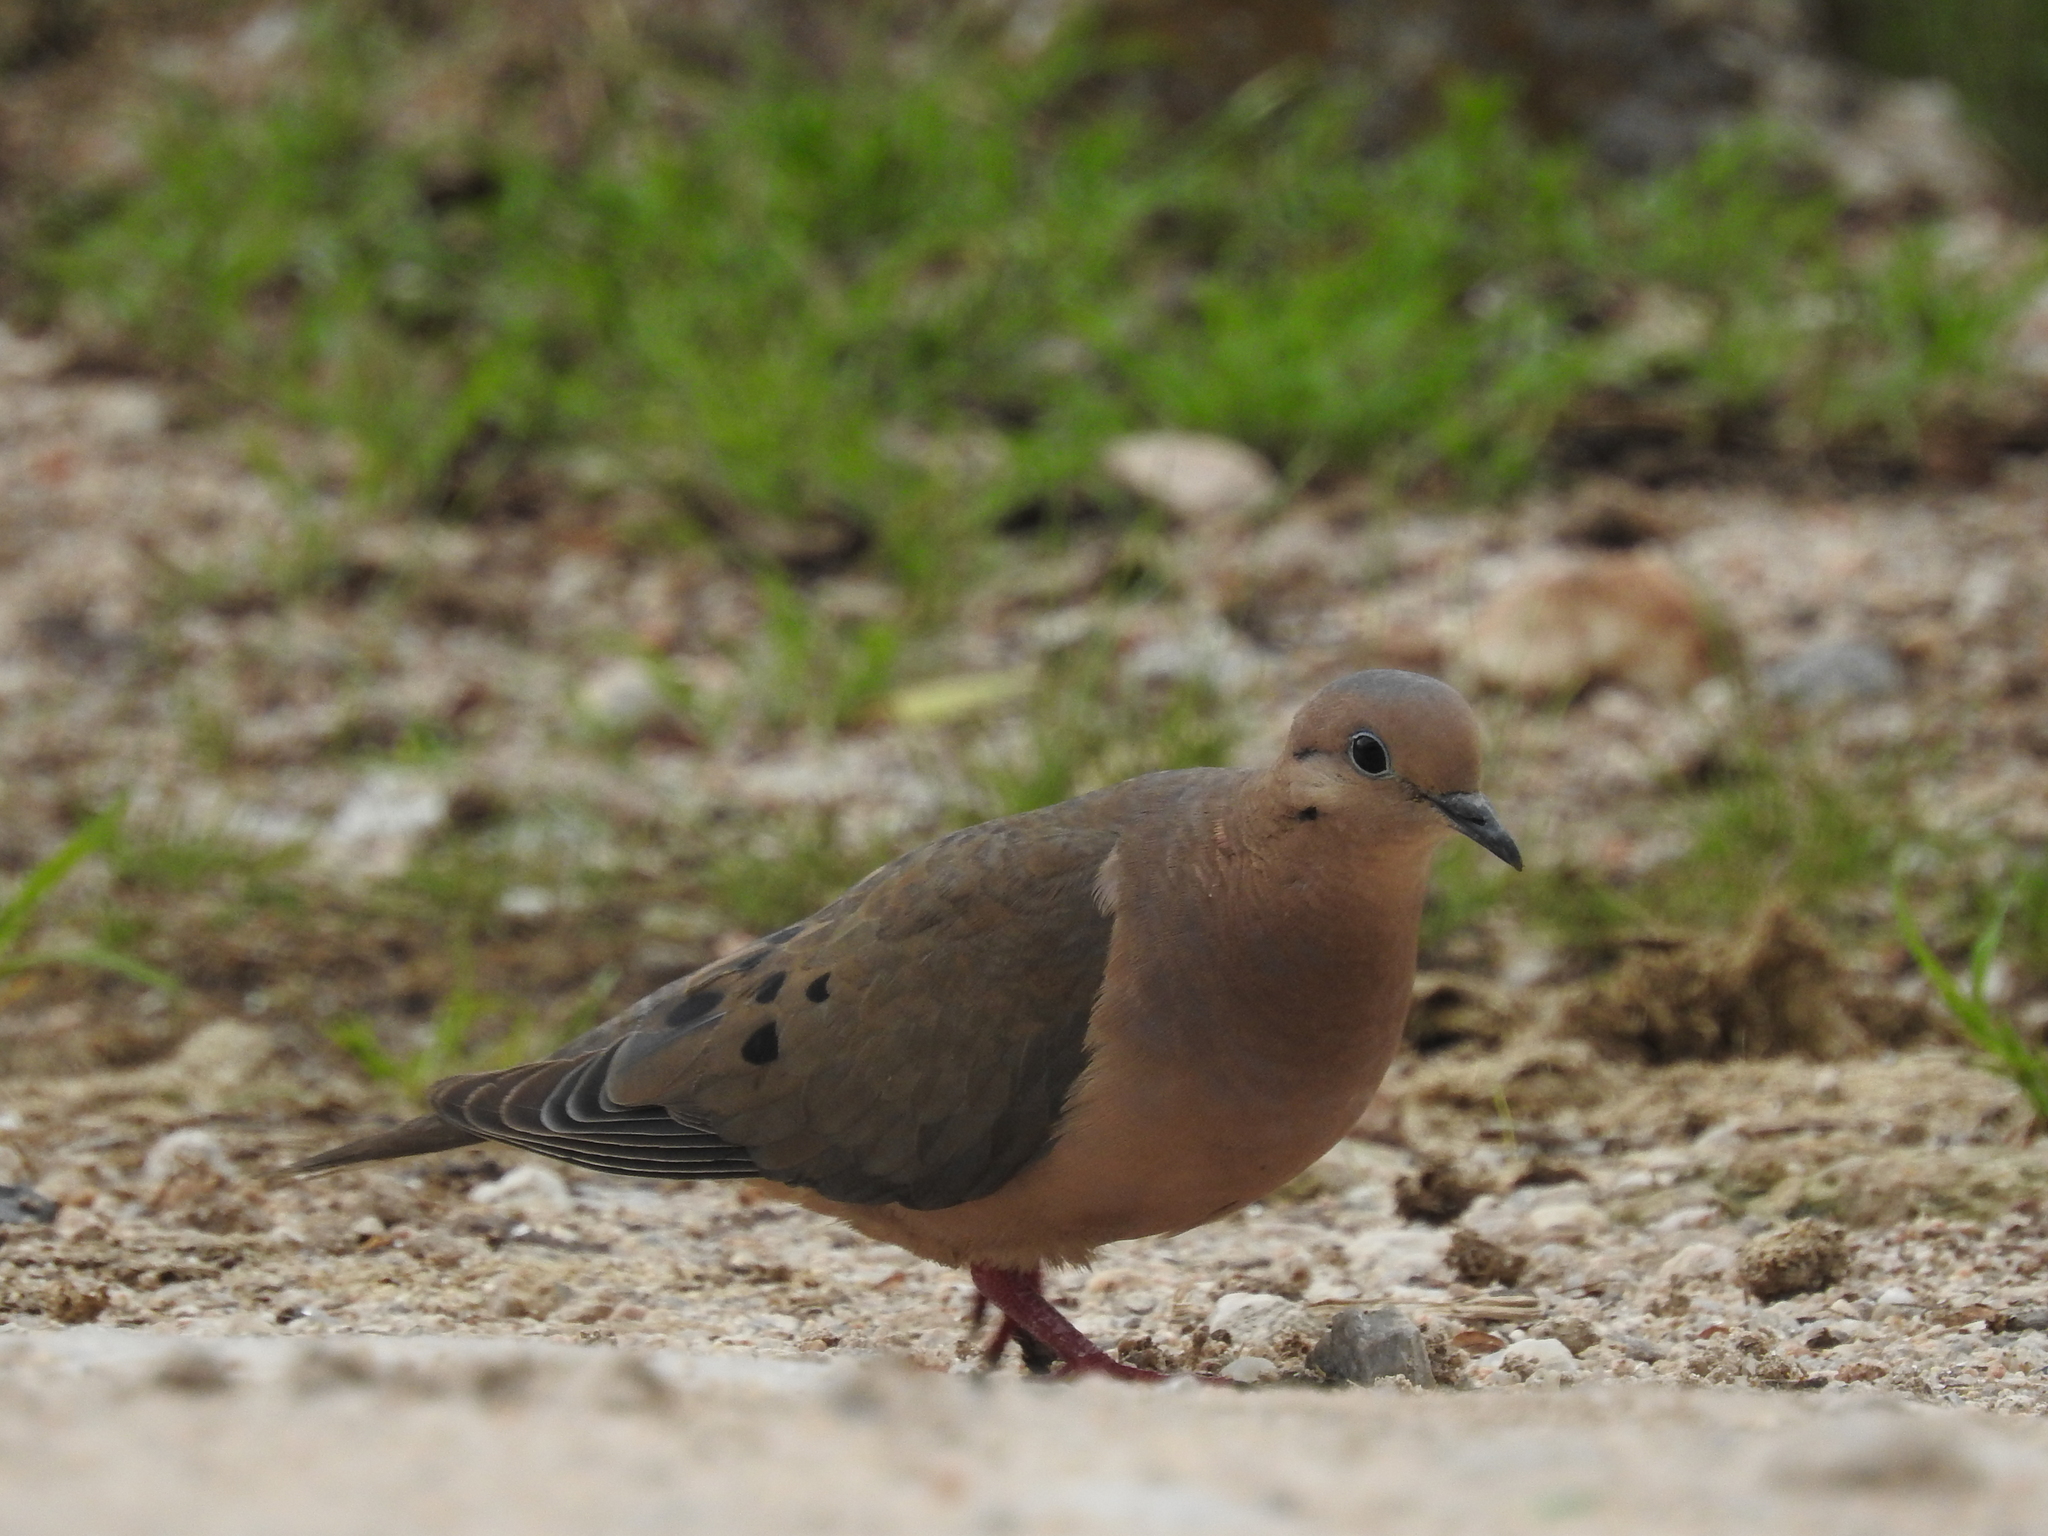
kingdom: Animalia
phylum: Chordata
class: Aves
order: Columbiformes
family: Columbidae
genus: Zenaida
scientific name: Zenaida auriculata
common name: Eared dove
